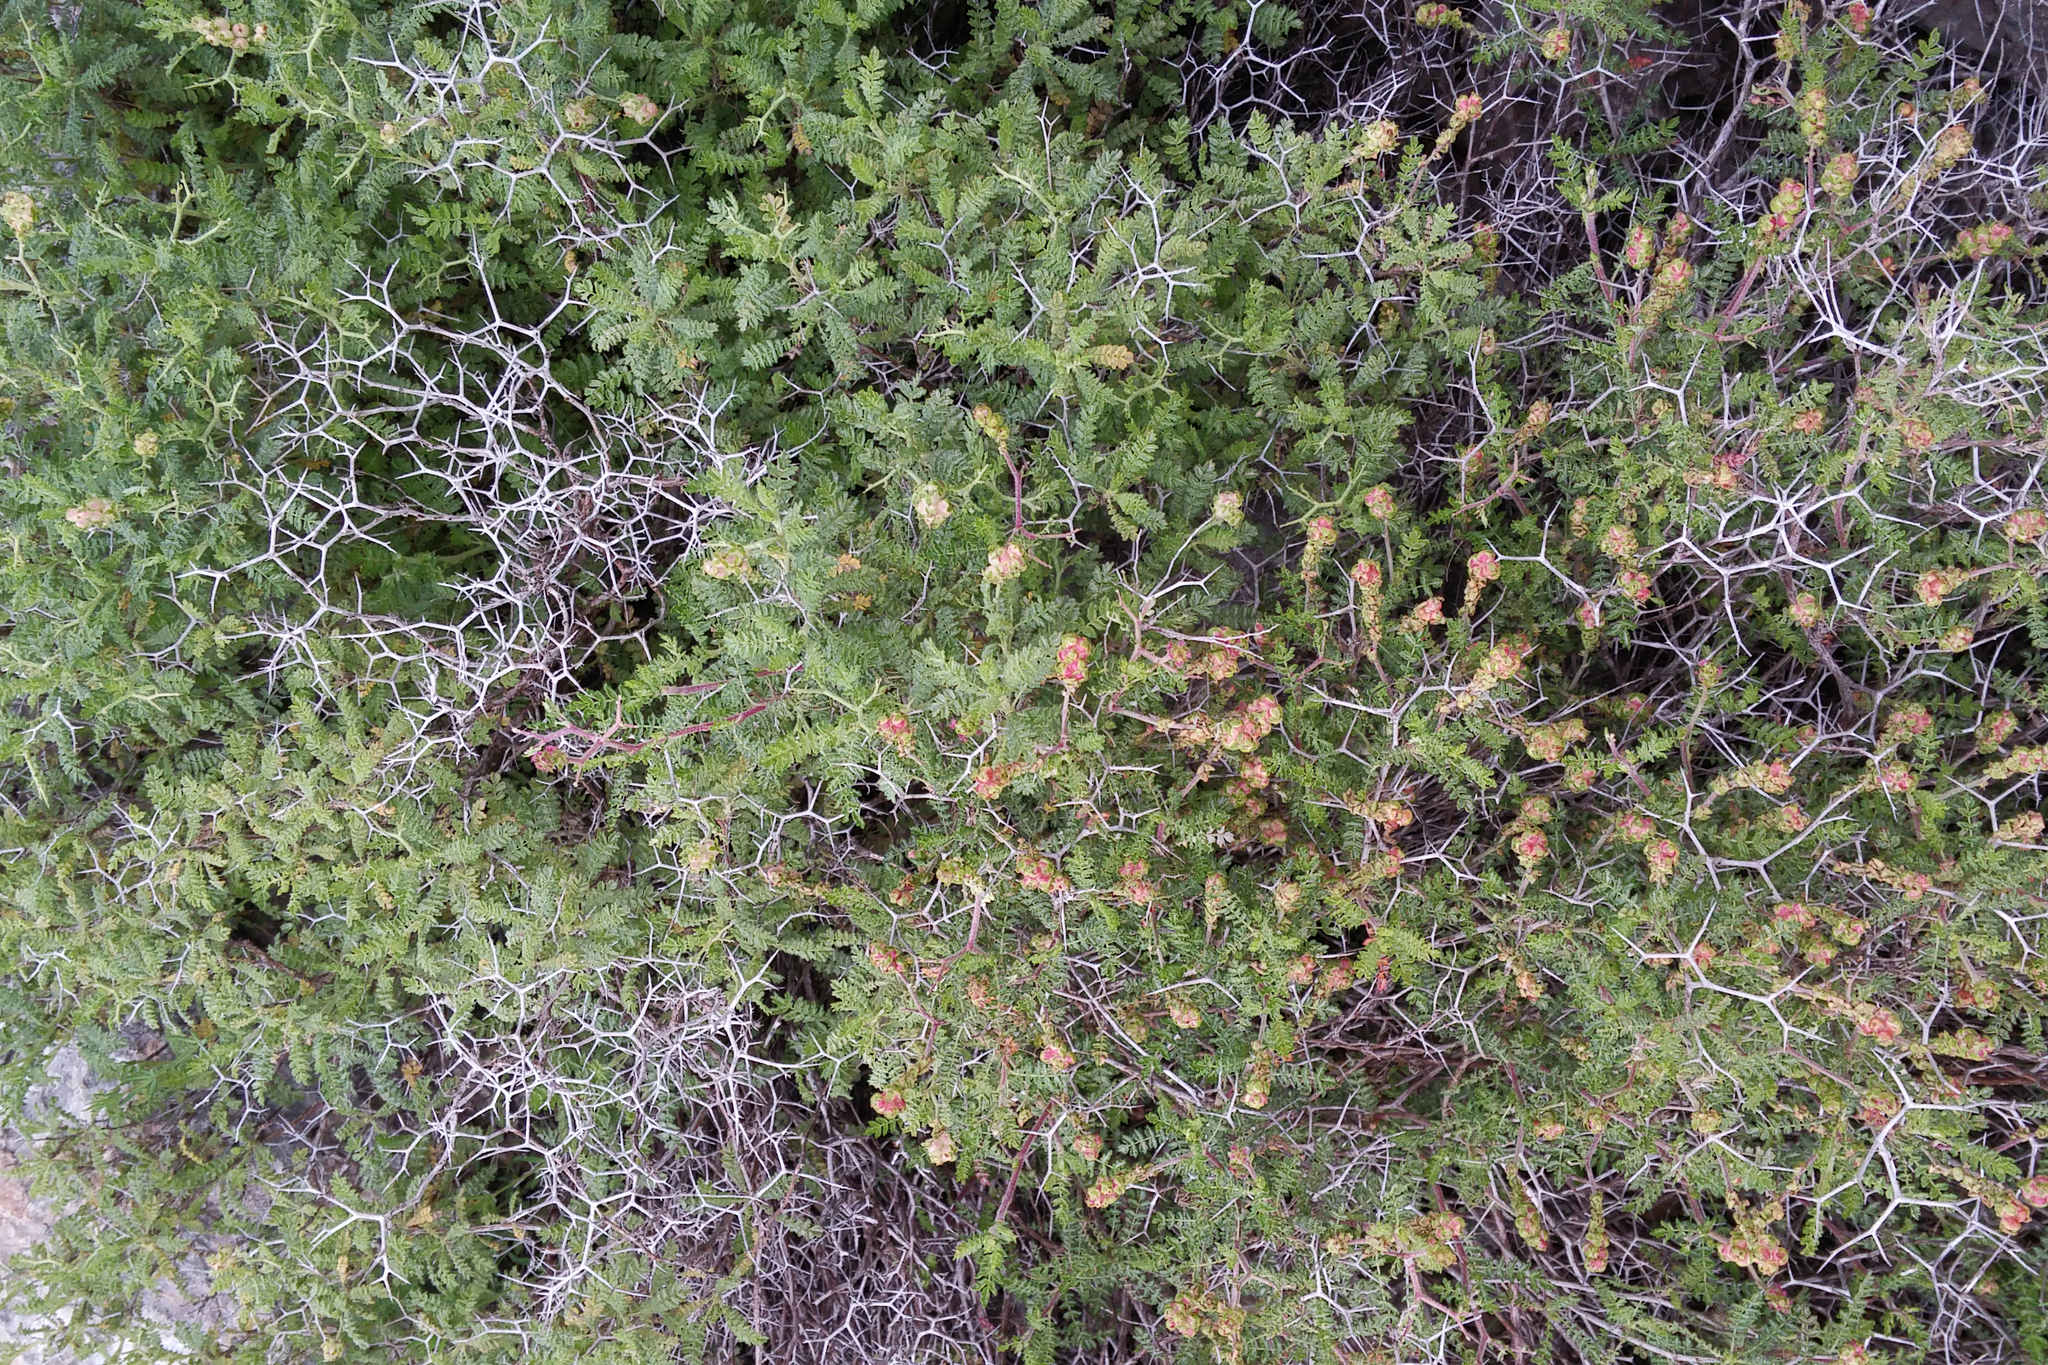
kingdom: Plantae
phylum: Tracheophyta
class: Magnoliopsida
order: Rosales
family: Rosaceae
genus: Sarcopoterium
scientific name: Sarcopoterium spinosum
